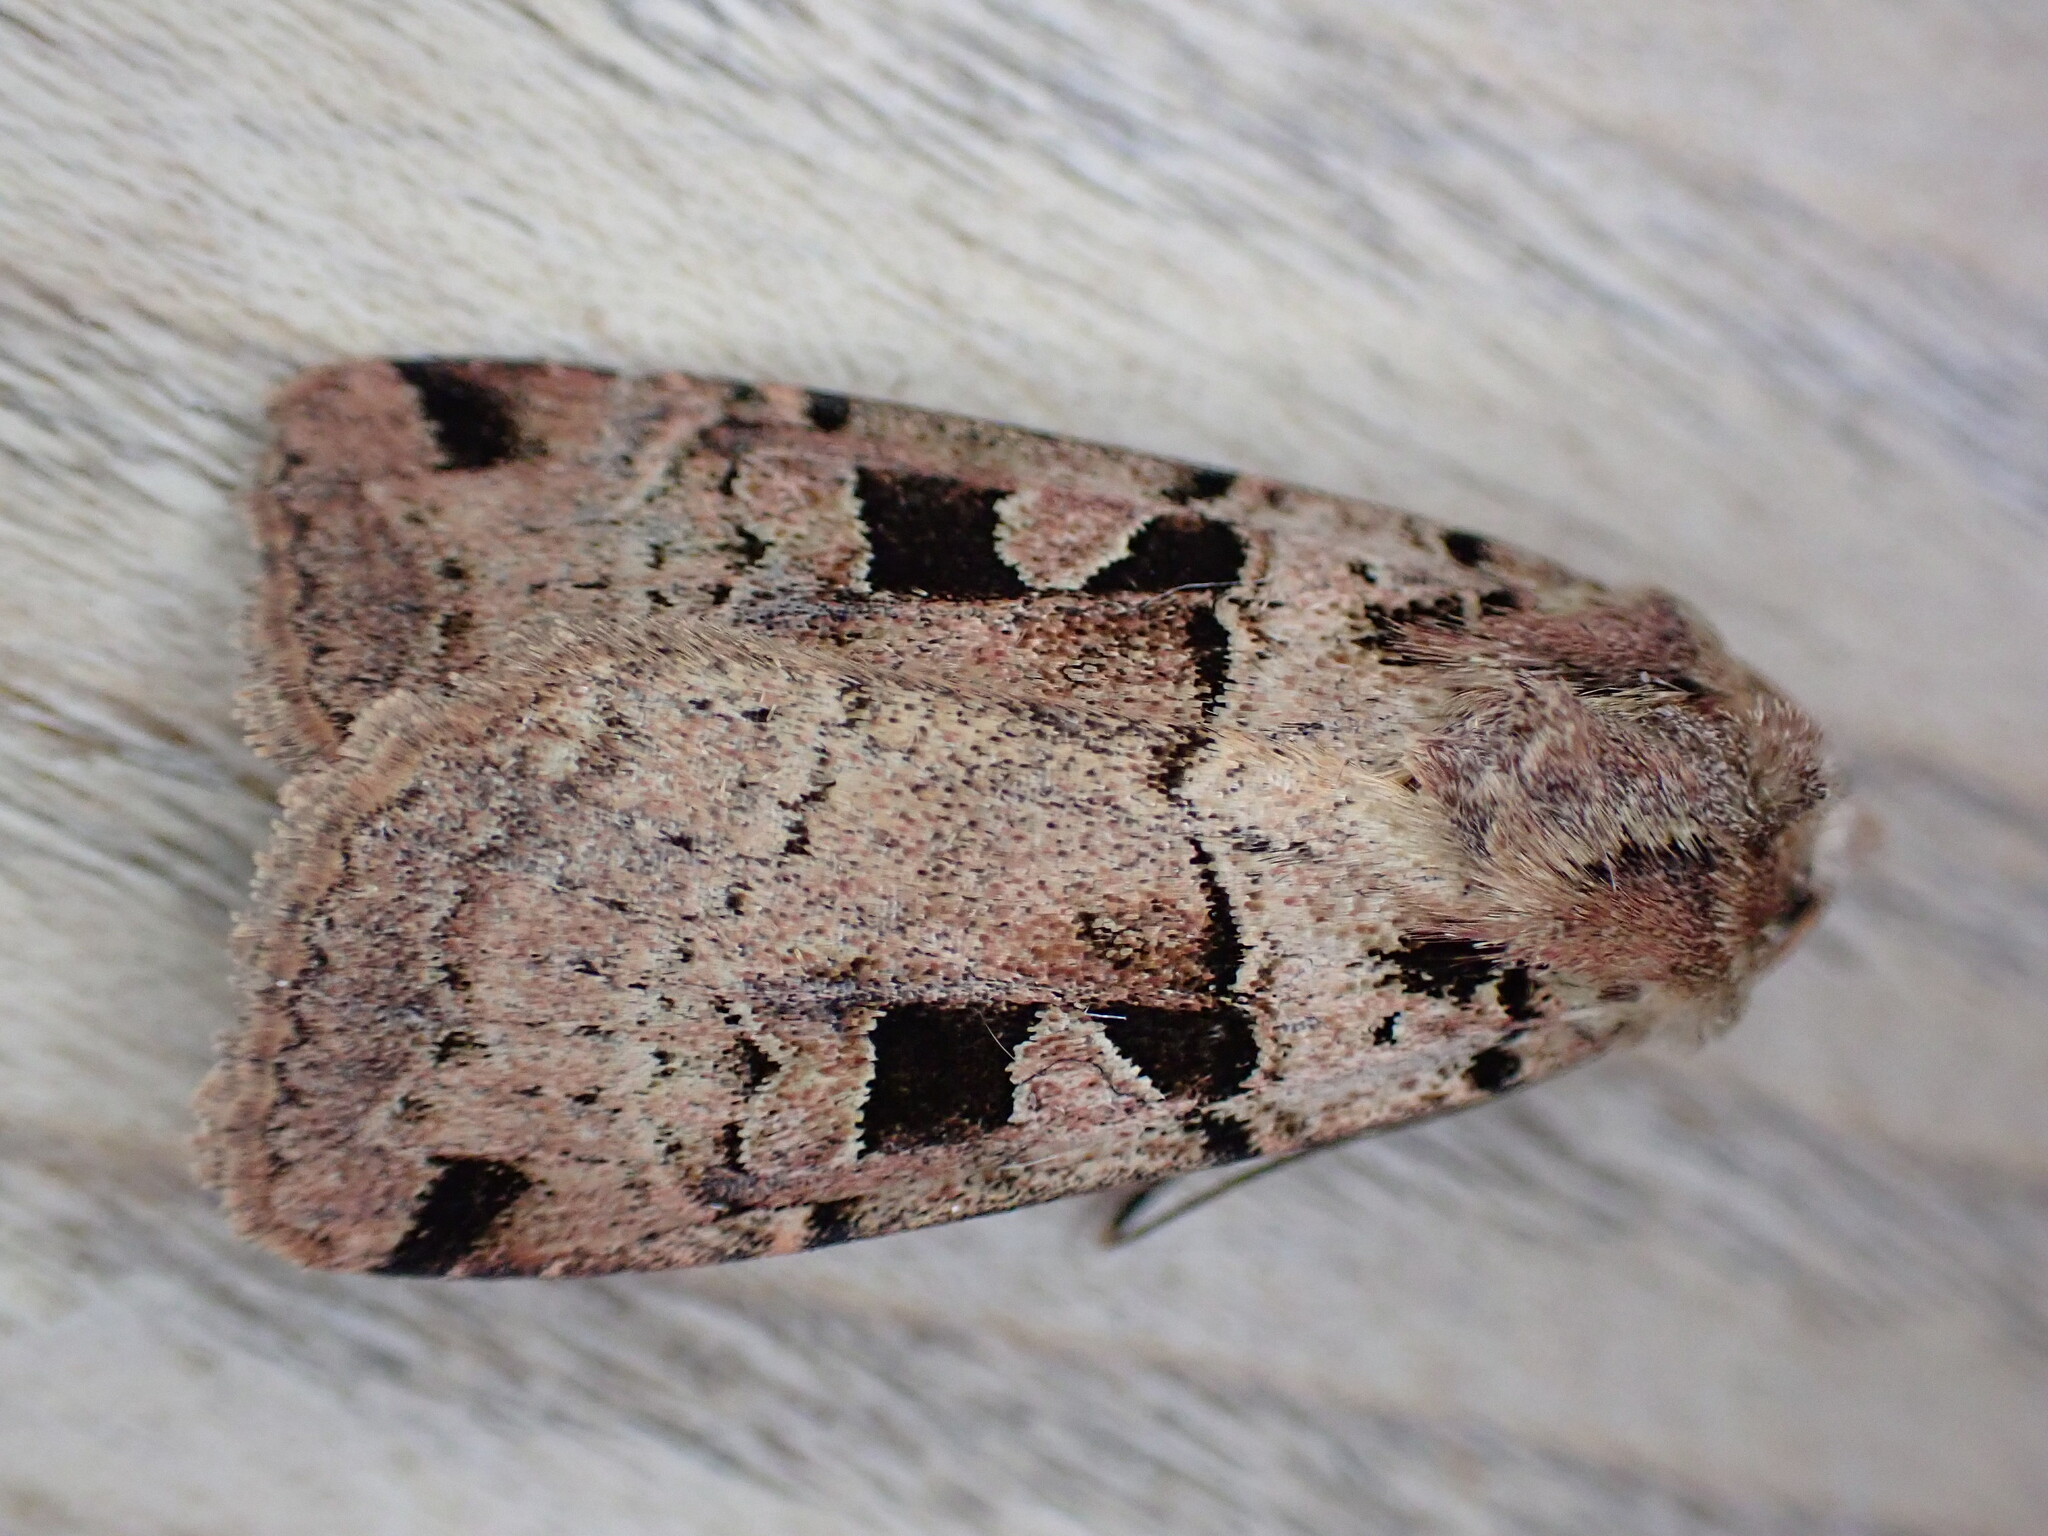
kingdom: Animalia
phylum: Arthropoda
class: Insecta
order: Lepidoptera
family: Noctuidae
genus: Xestia
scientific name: Xestia triangulum
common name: Double square-spot
